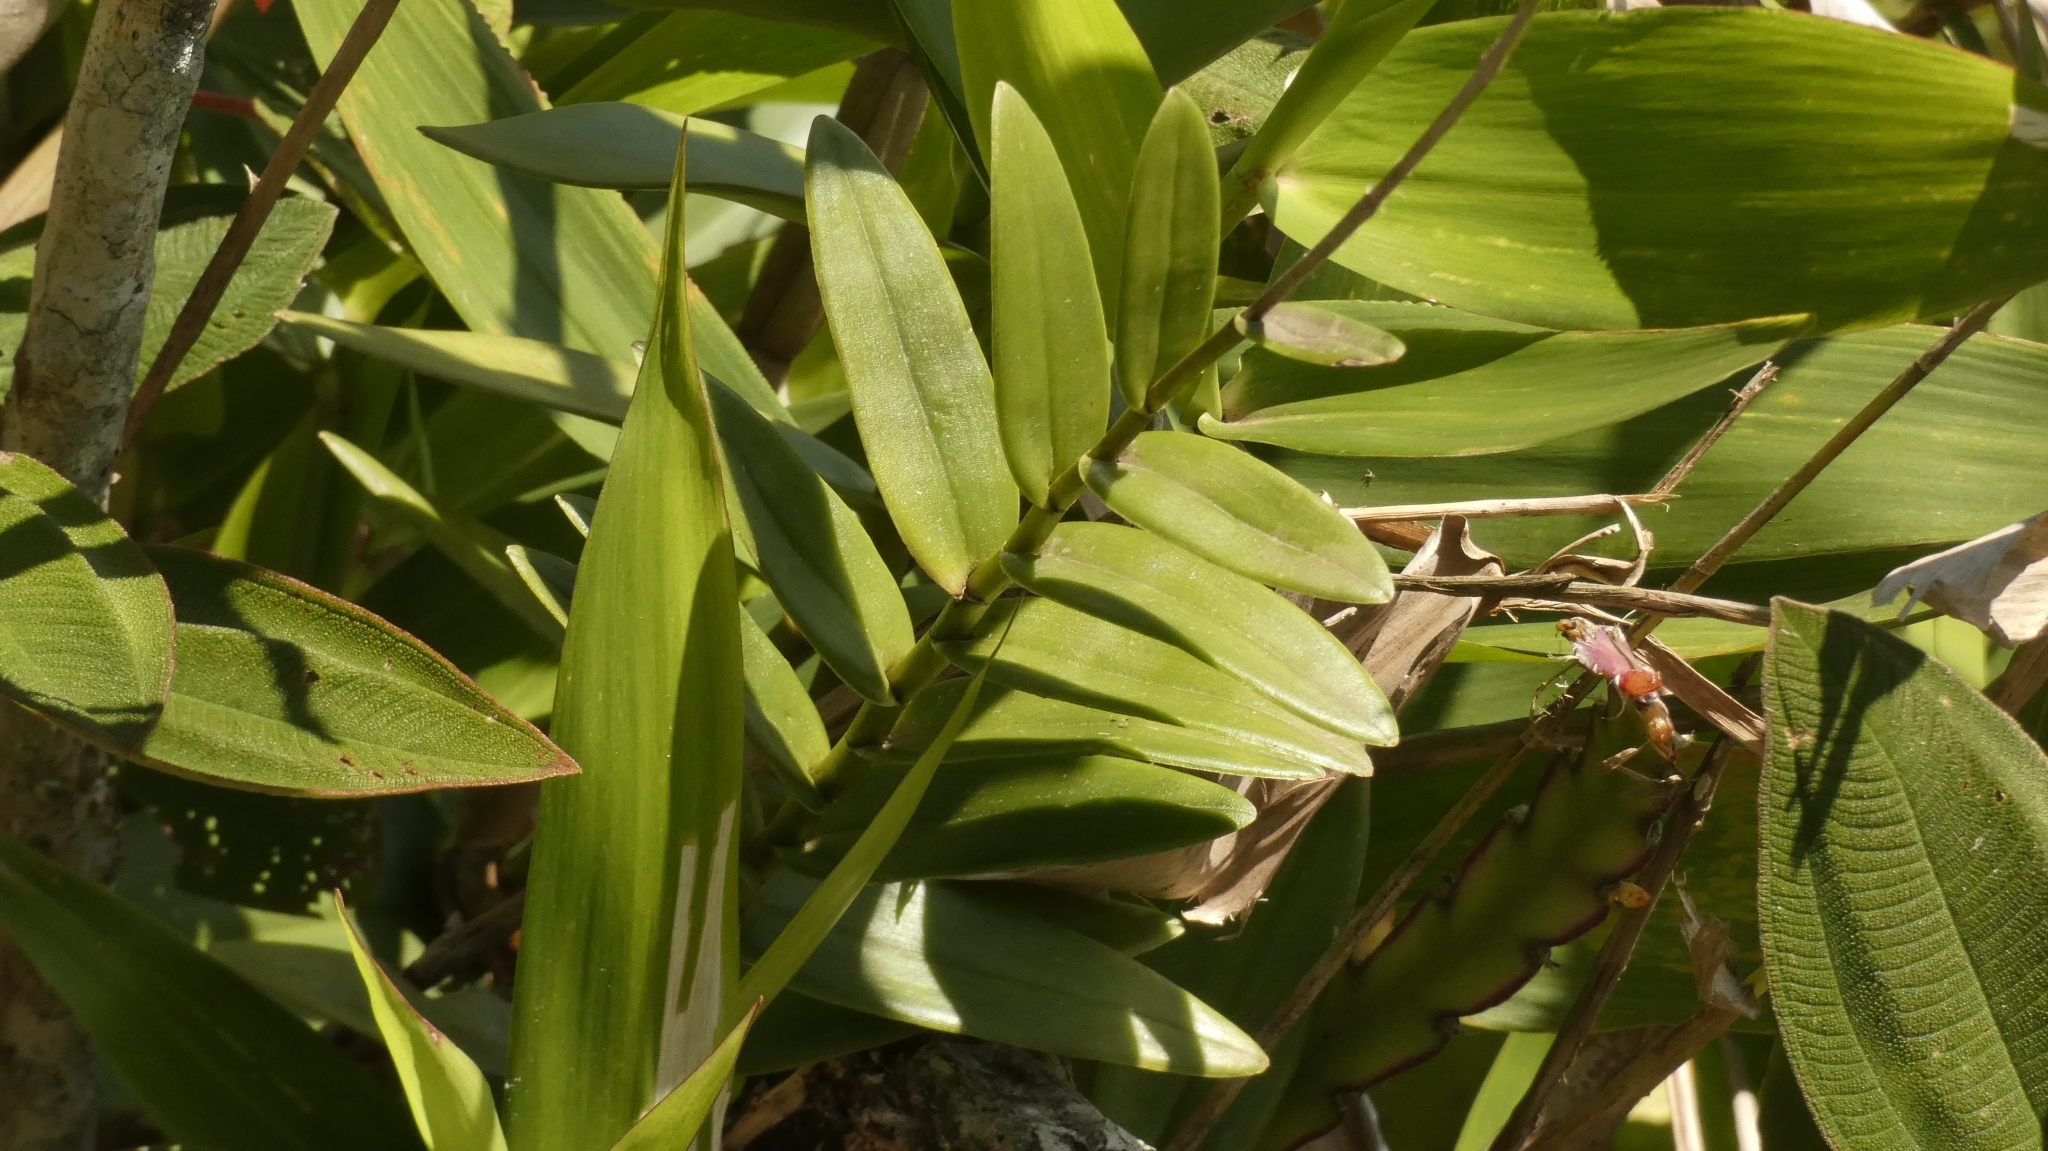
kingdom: Plantae
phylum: Tracheophyta
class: Liliopsida
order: Asparagales
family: Orchidaceae
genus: Epidendrum
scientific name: Epidendrum secundum
